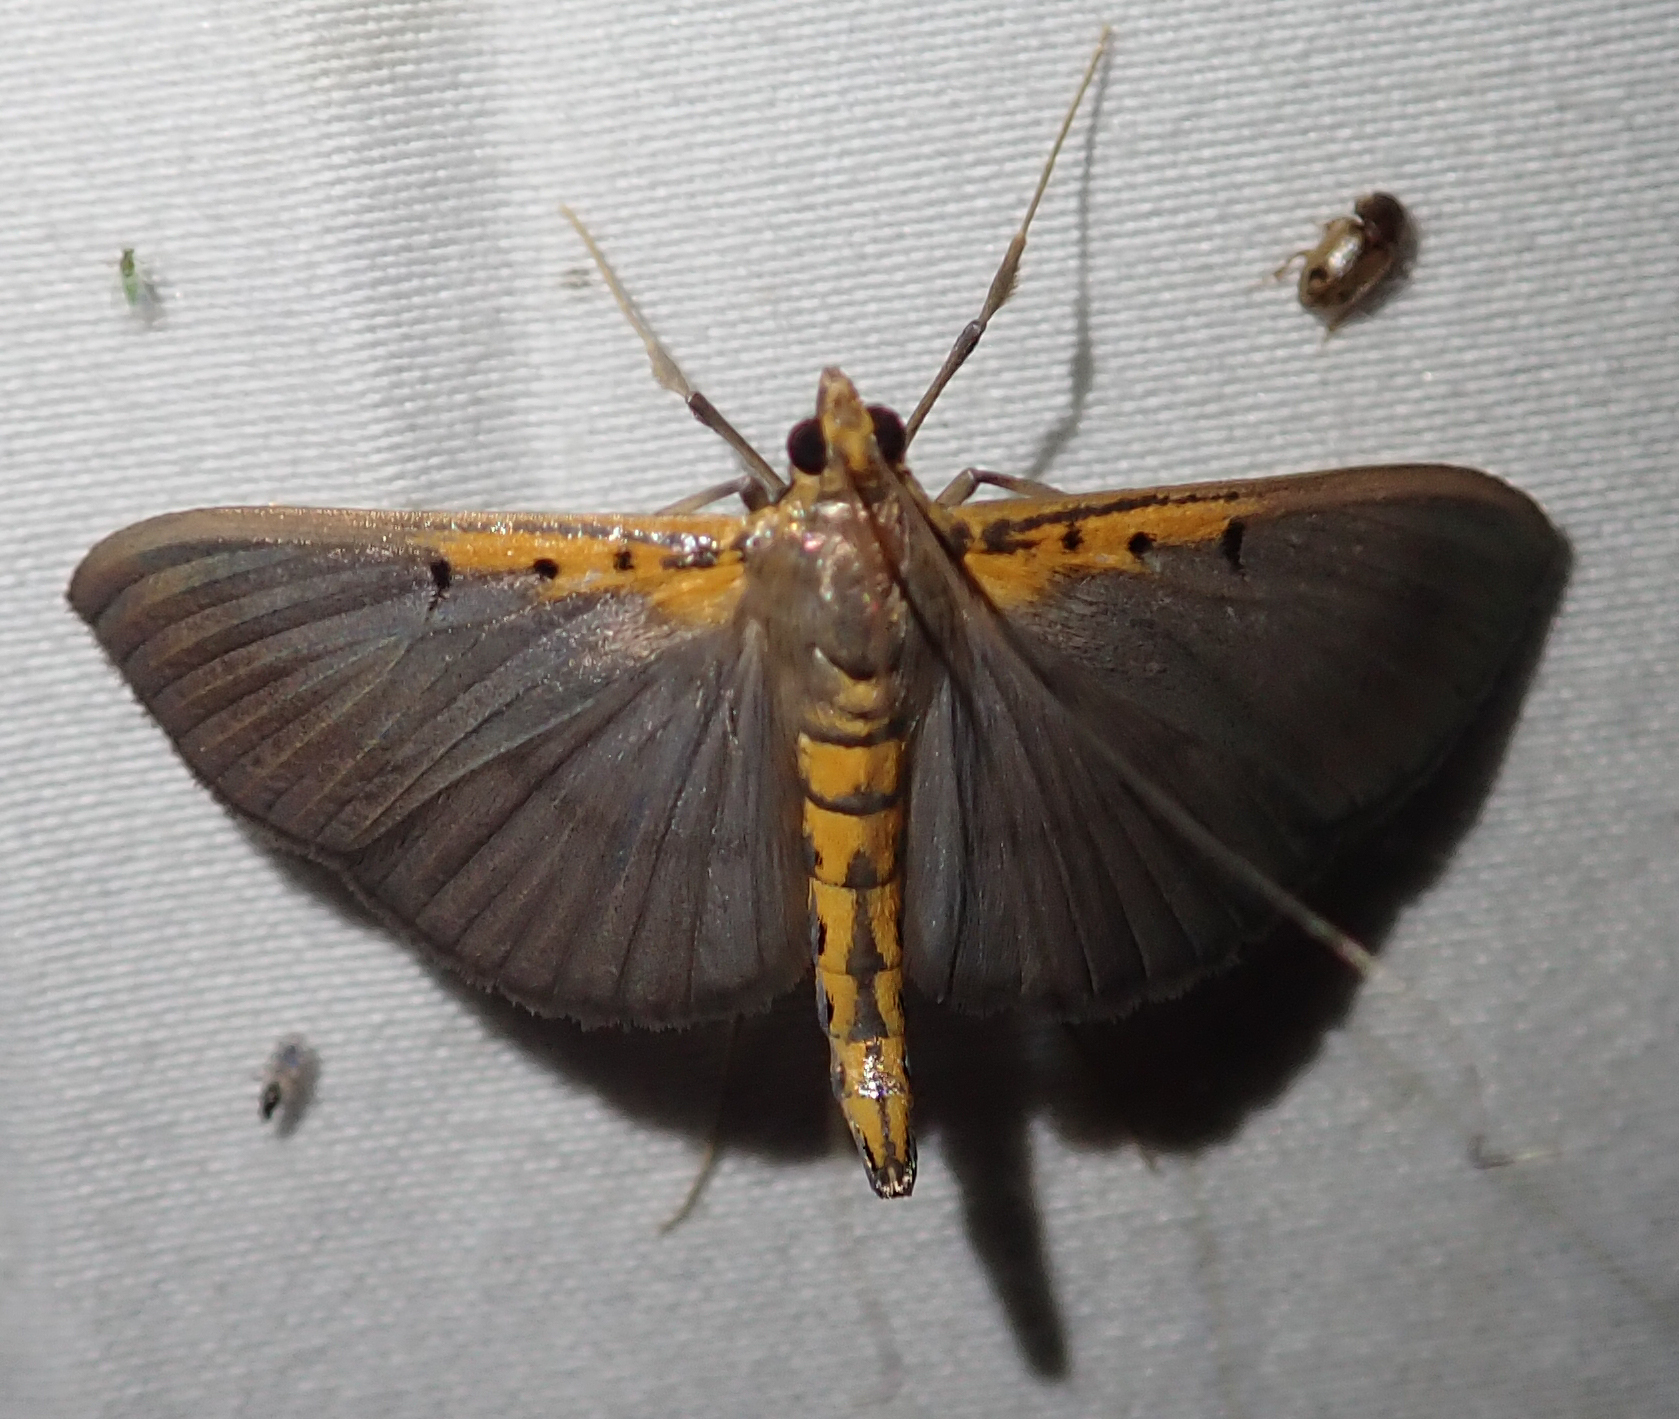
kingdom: Animalia
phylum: Arthropoda
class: Insecta
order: Lepidoptera
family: Crambidae
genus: Filodes
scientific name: Filodes costivitralis
